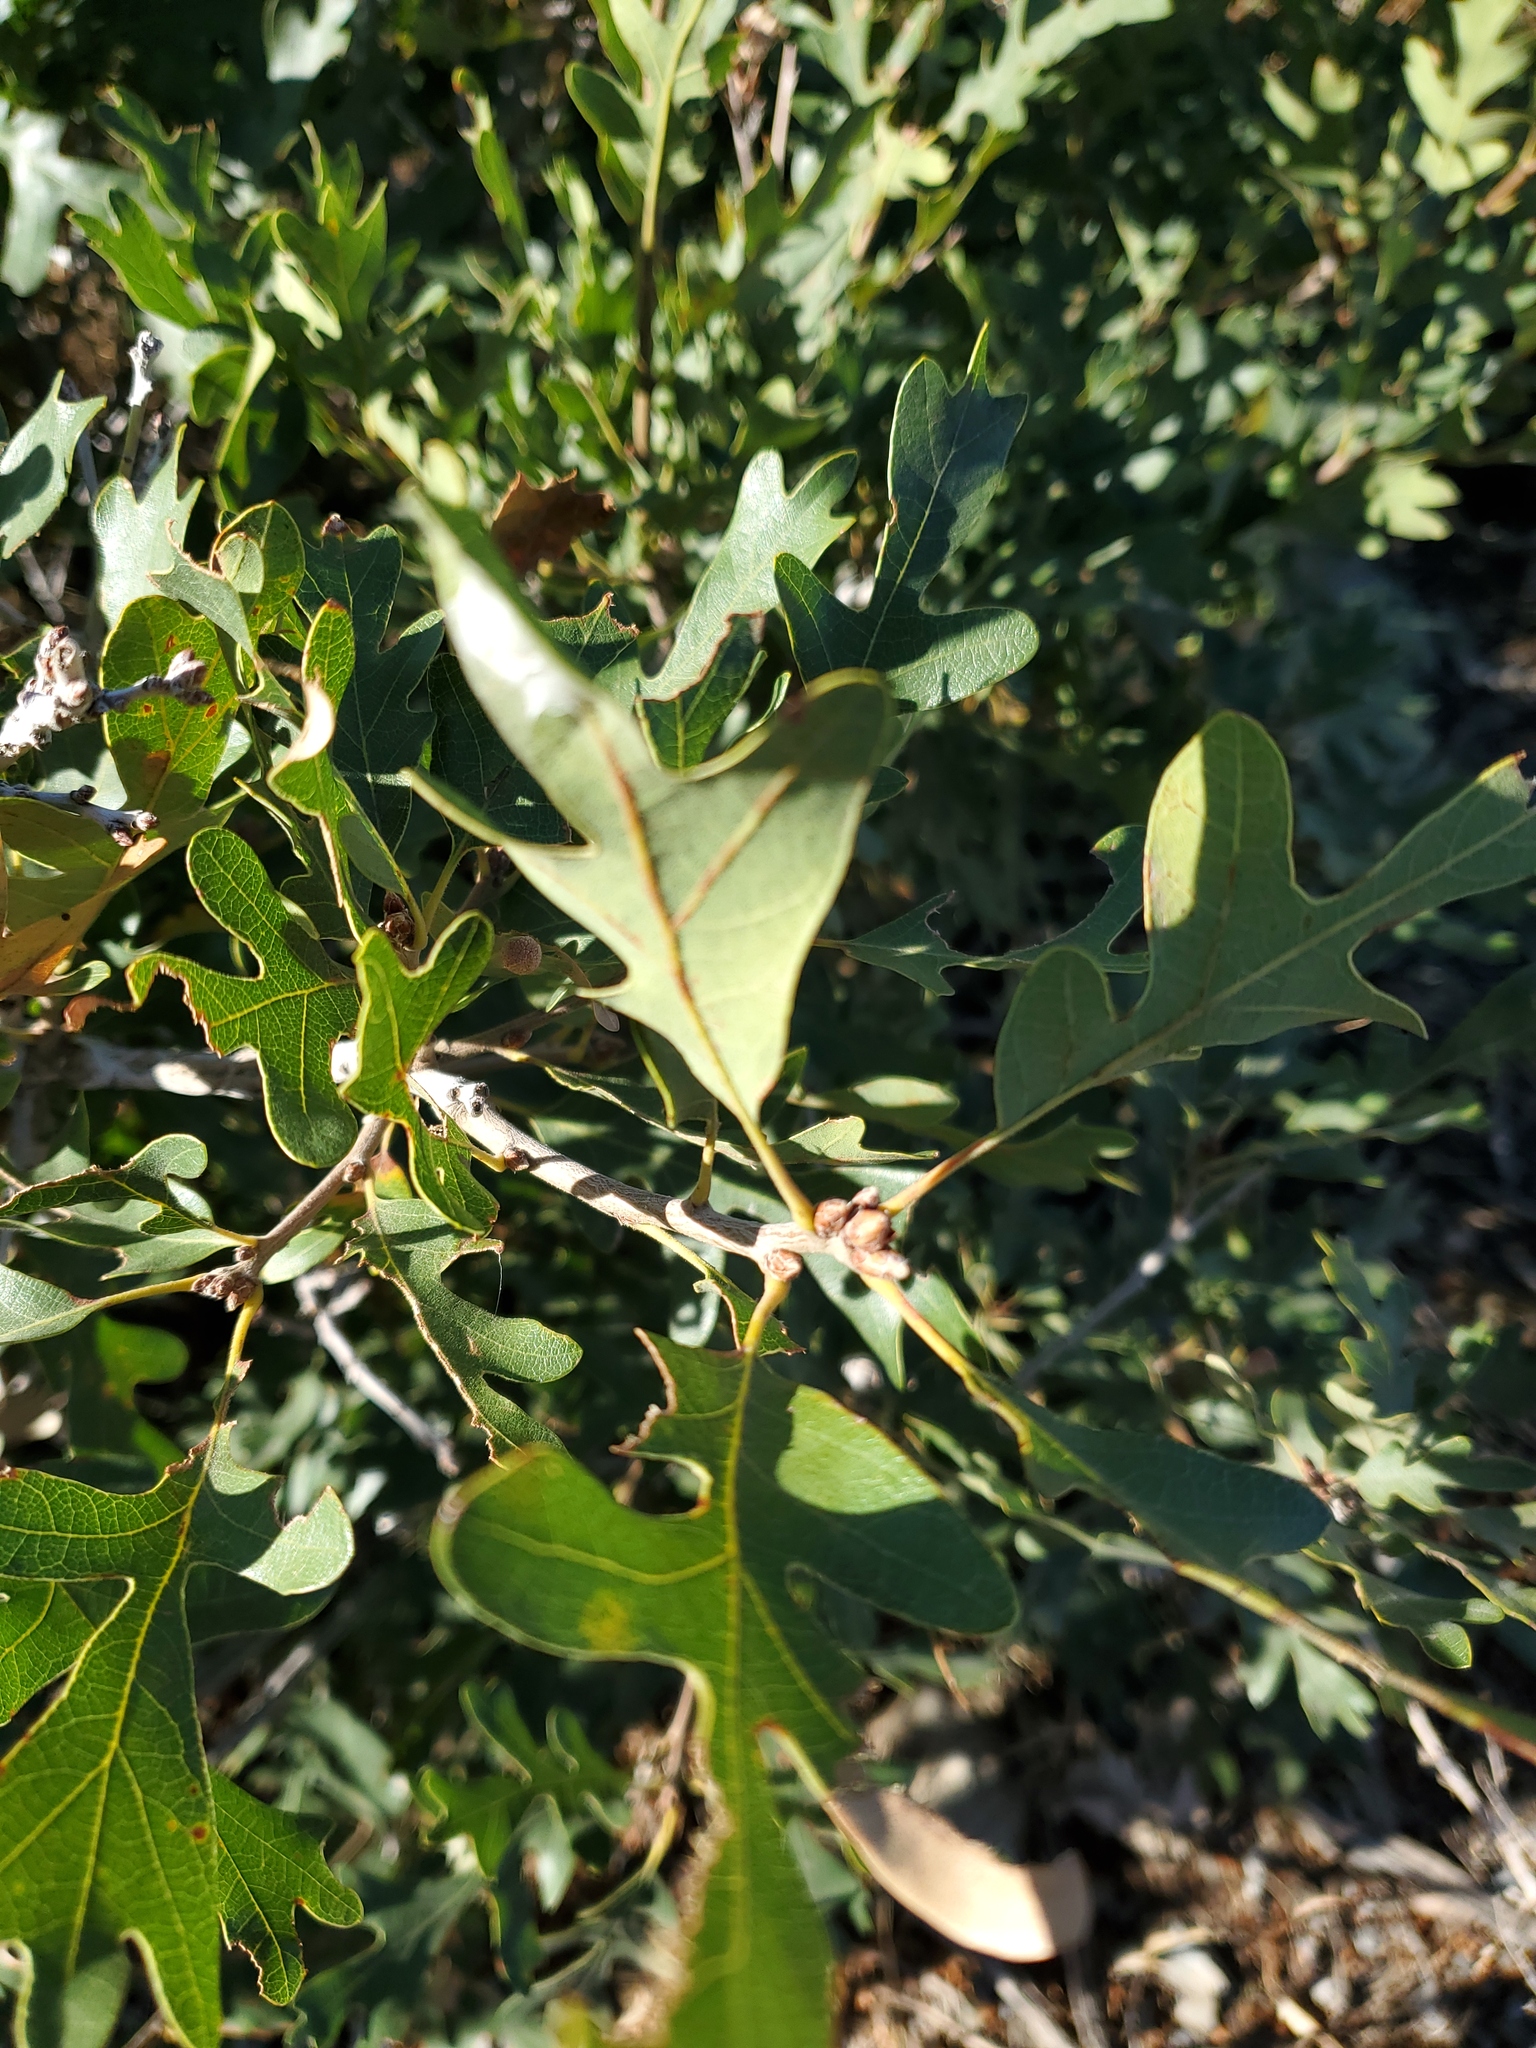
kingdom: Plantae
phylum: Tracheophyta
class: Magnoliopsida
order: Fagales
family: Fagaceae
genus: Quercus
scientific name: Quercus gambelii
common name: Gambel oak
